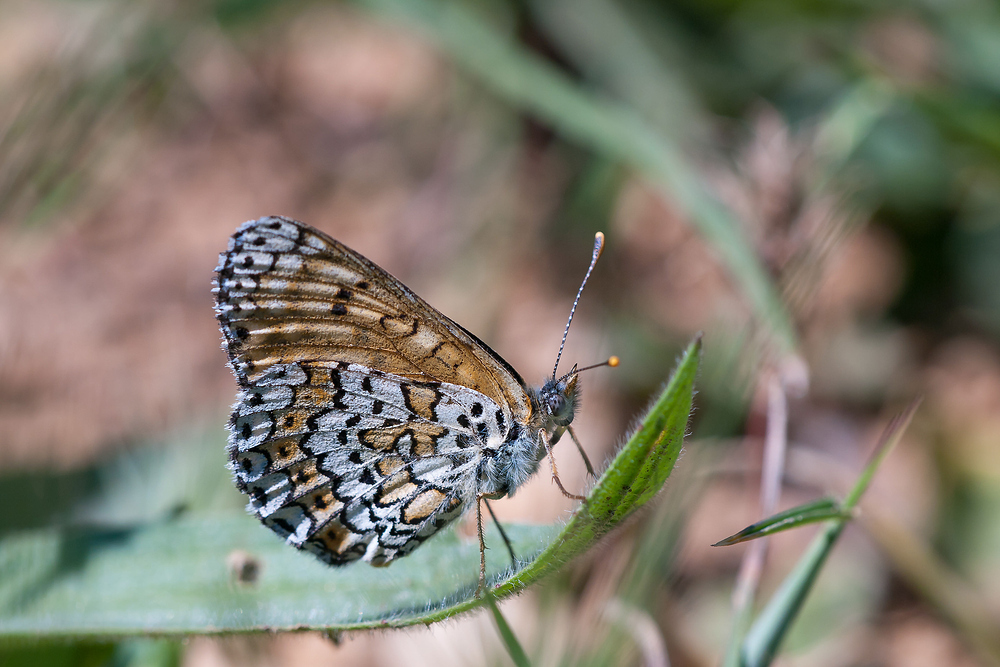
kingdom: Animalia
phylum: Arthropoda
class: Insecta
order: Lepidoptera
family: Nymphalidae
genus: Melitaea
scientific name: Melitaea cinxia
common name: Glanville fritillary
